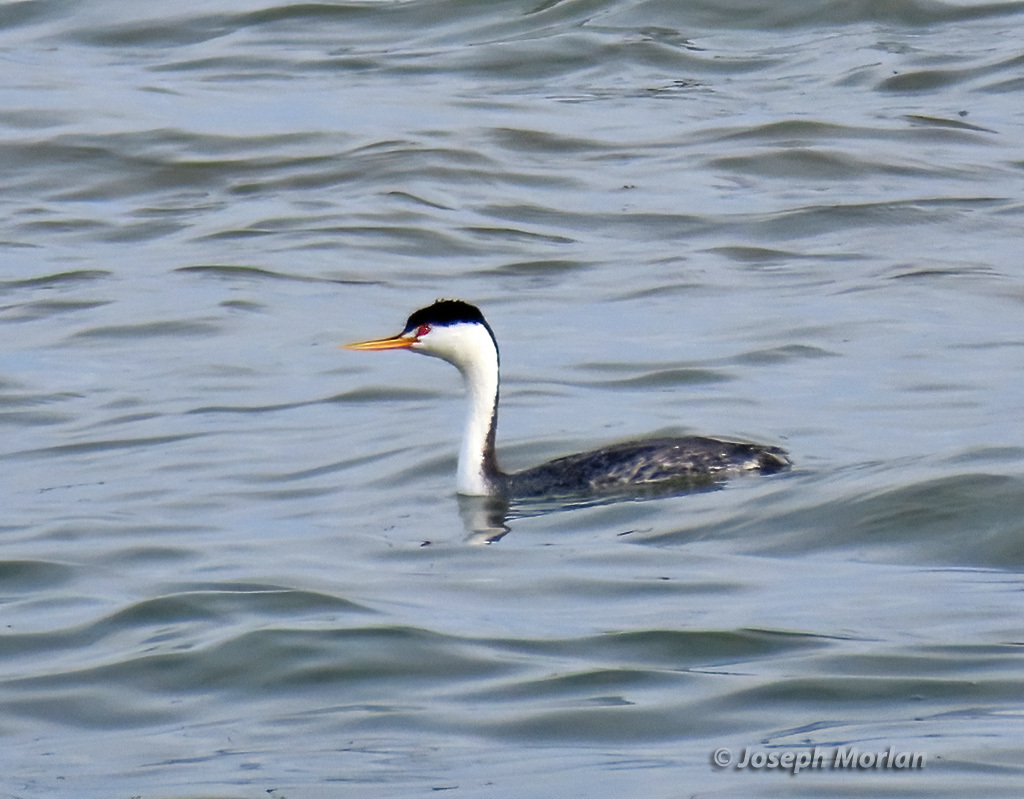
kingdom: Animalia
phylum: Chordata
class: Aves
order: Podicipediformes
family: Podicipedidae
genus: Aechmophorus
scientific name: Aechmophorus clarkii
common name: Clark's grebe
